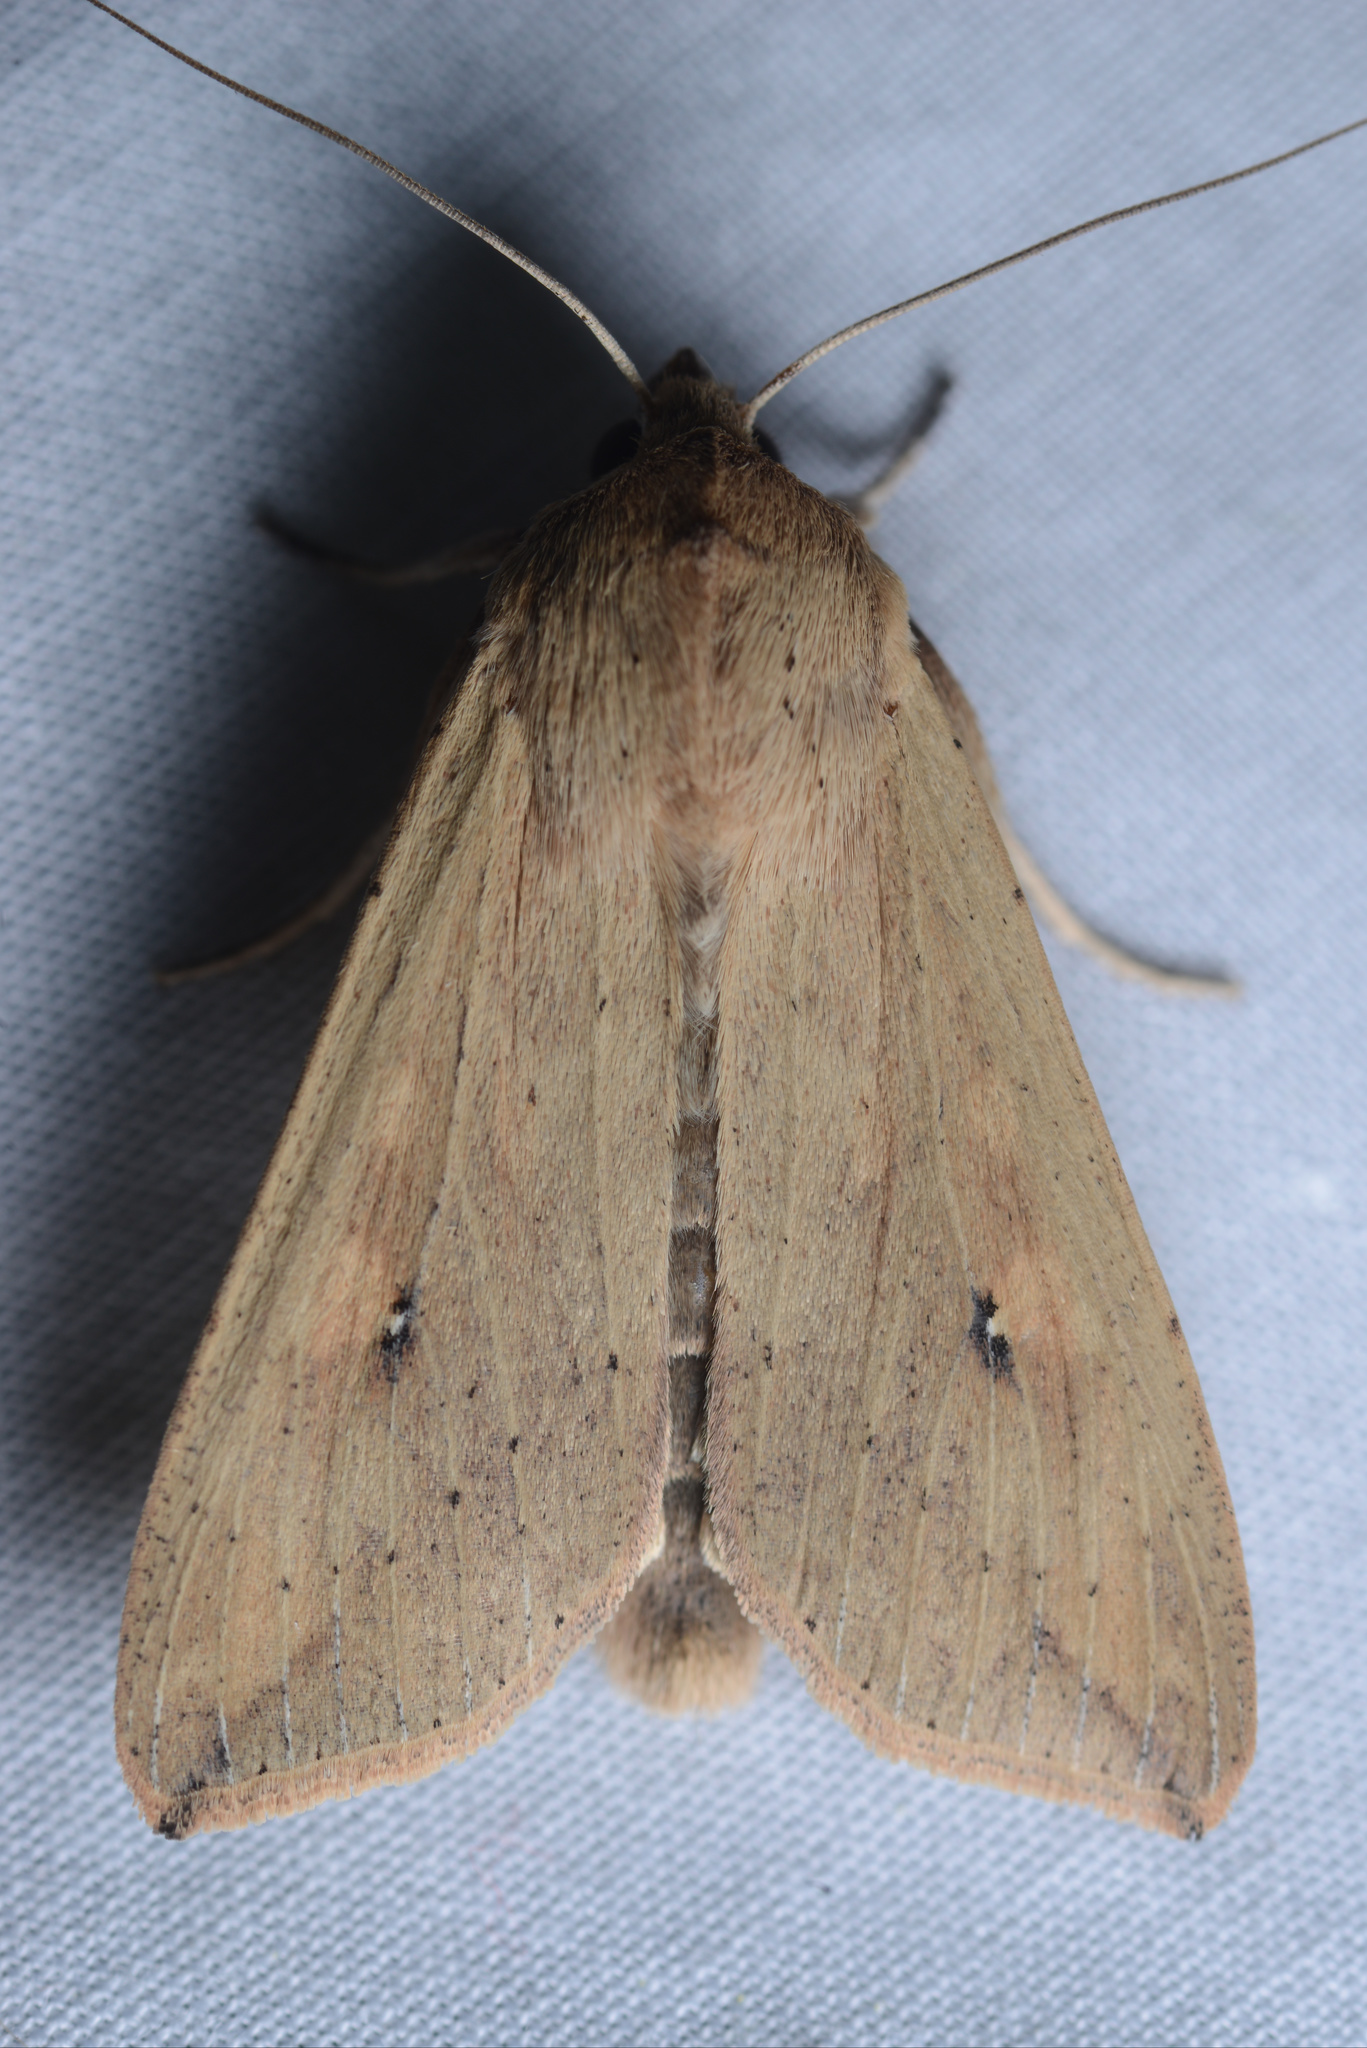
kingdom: Animalia
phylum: Arthropoda
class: Insecta
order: Lepidoptera
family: Noctuidae
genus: Mythimna
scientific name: Mythimna separata
